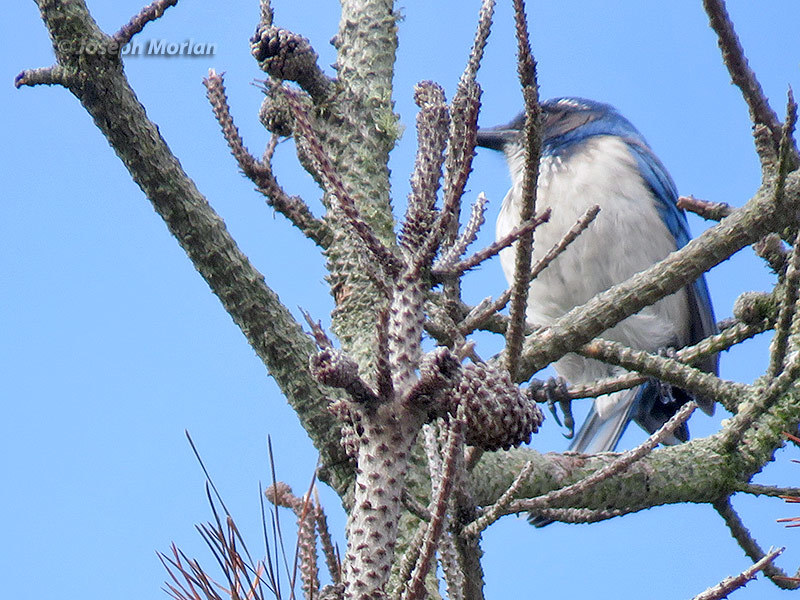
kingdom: Animalia
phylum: Chordata
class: Aves
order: Passeriformes
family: Corvidae
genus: Aphelocoma
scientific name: Aphelocoma californica
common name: California scrub-jay
